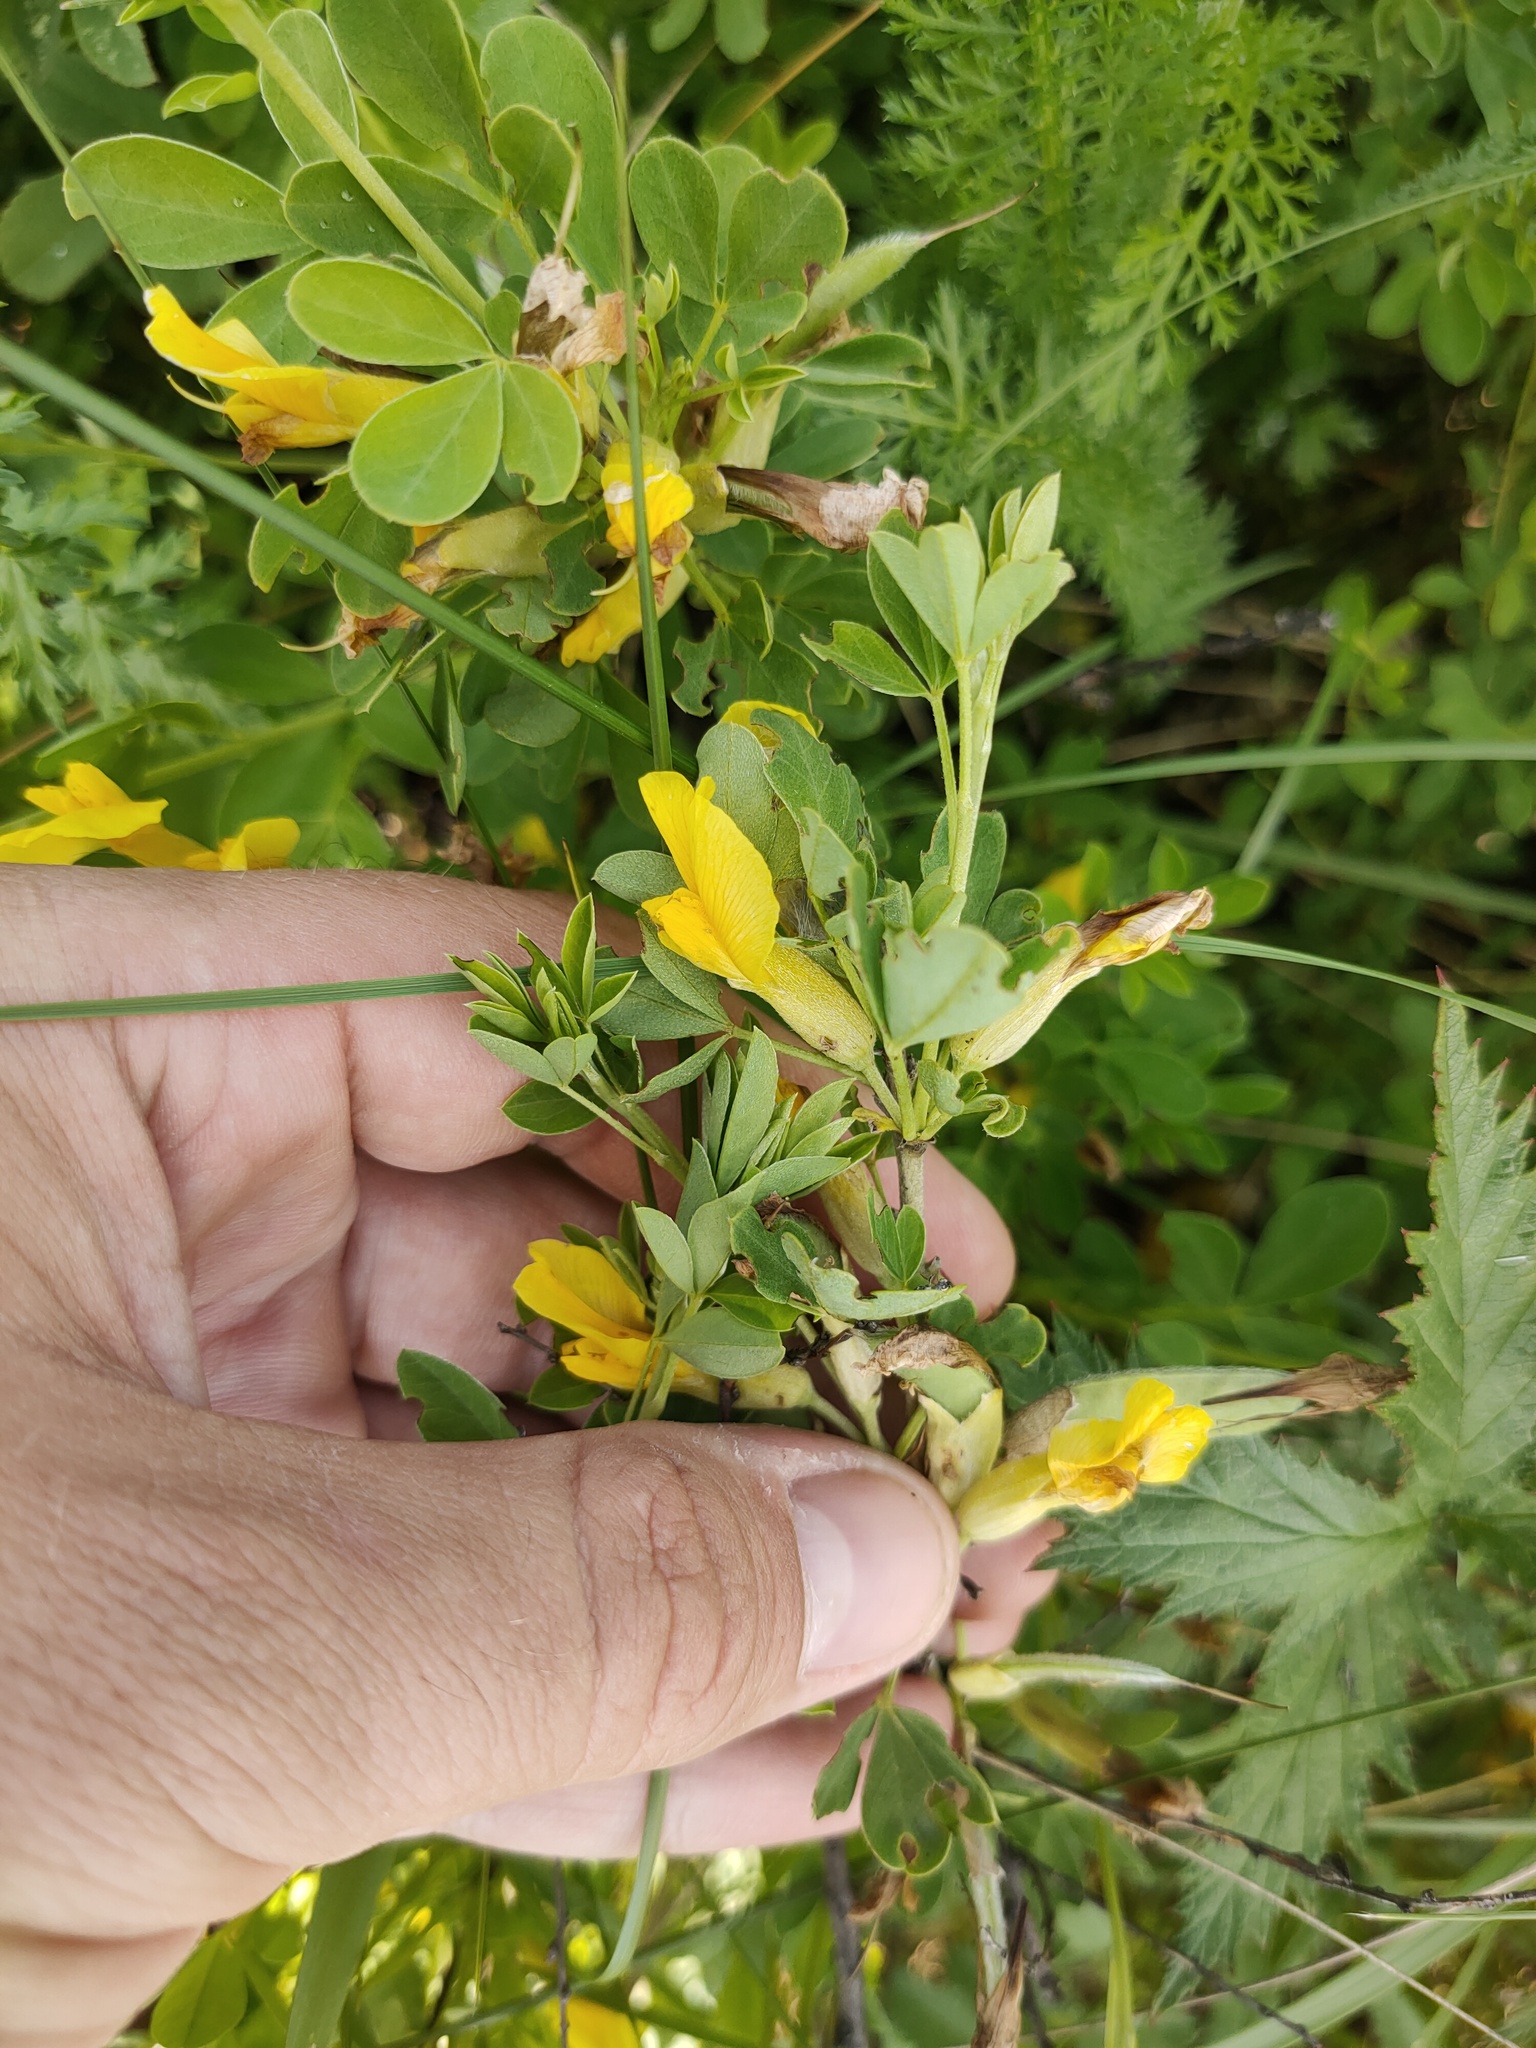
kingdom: Plantae
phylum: Tracheophyta
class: Magnoliopsida
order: Fabales
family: Fabaceae
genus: Chamaecytisus
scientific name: Chamaecytisus ruthenicus
